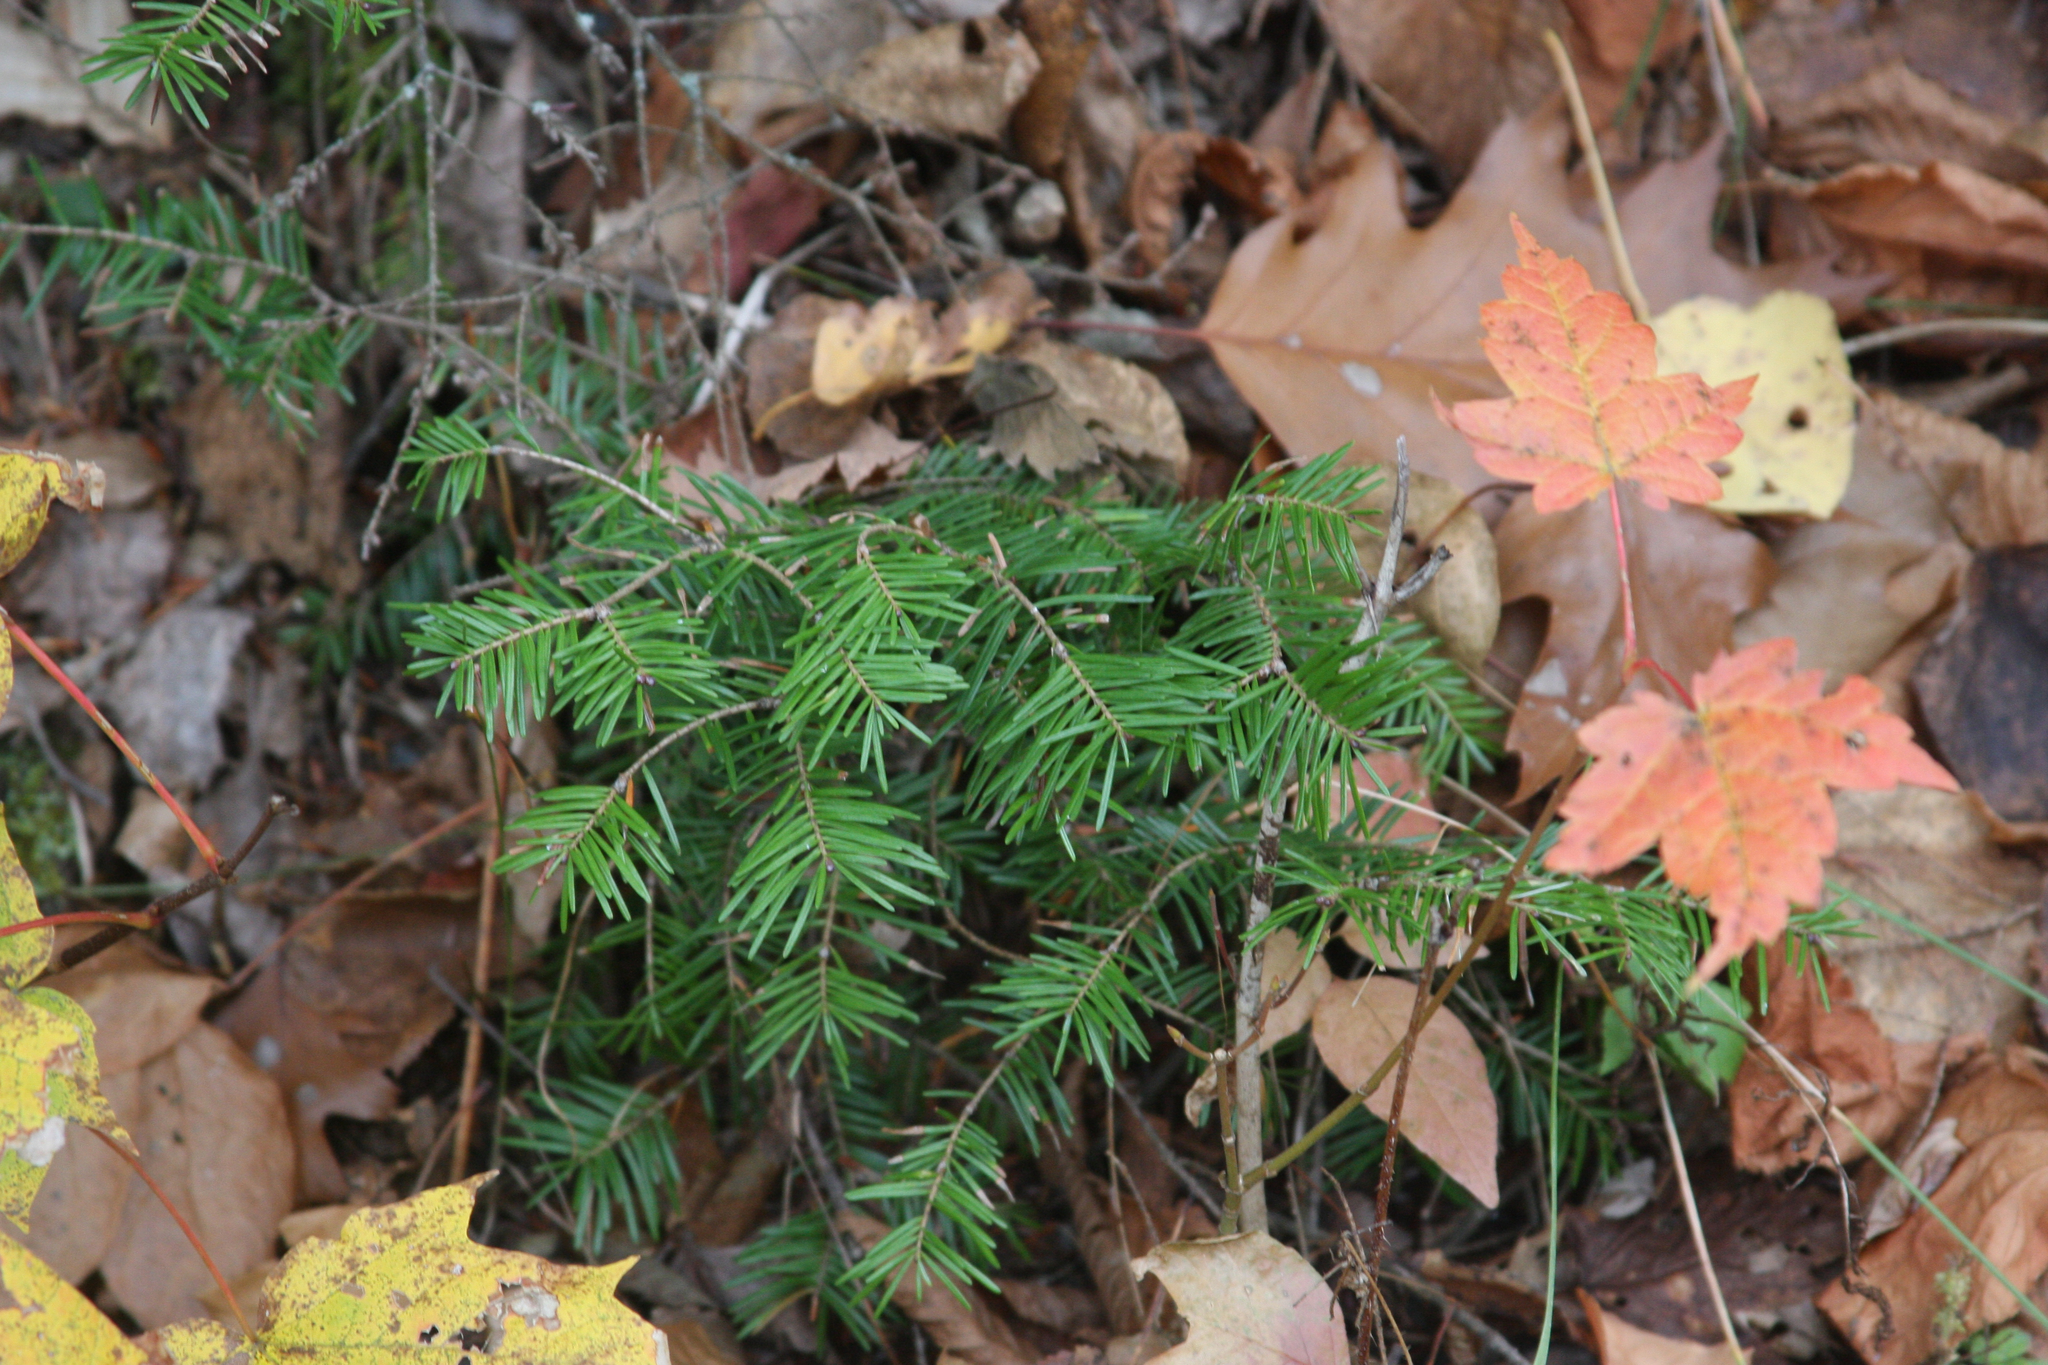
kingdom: Plantae
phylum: Tracheophyta
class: Pinopsida
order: Pinales
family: Pinaceae
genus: Abies
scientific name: Abies balsamea
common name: Balsam fir
